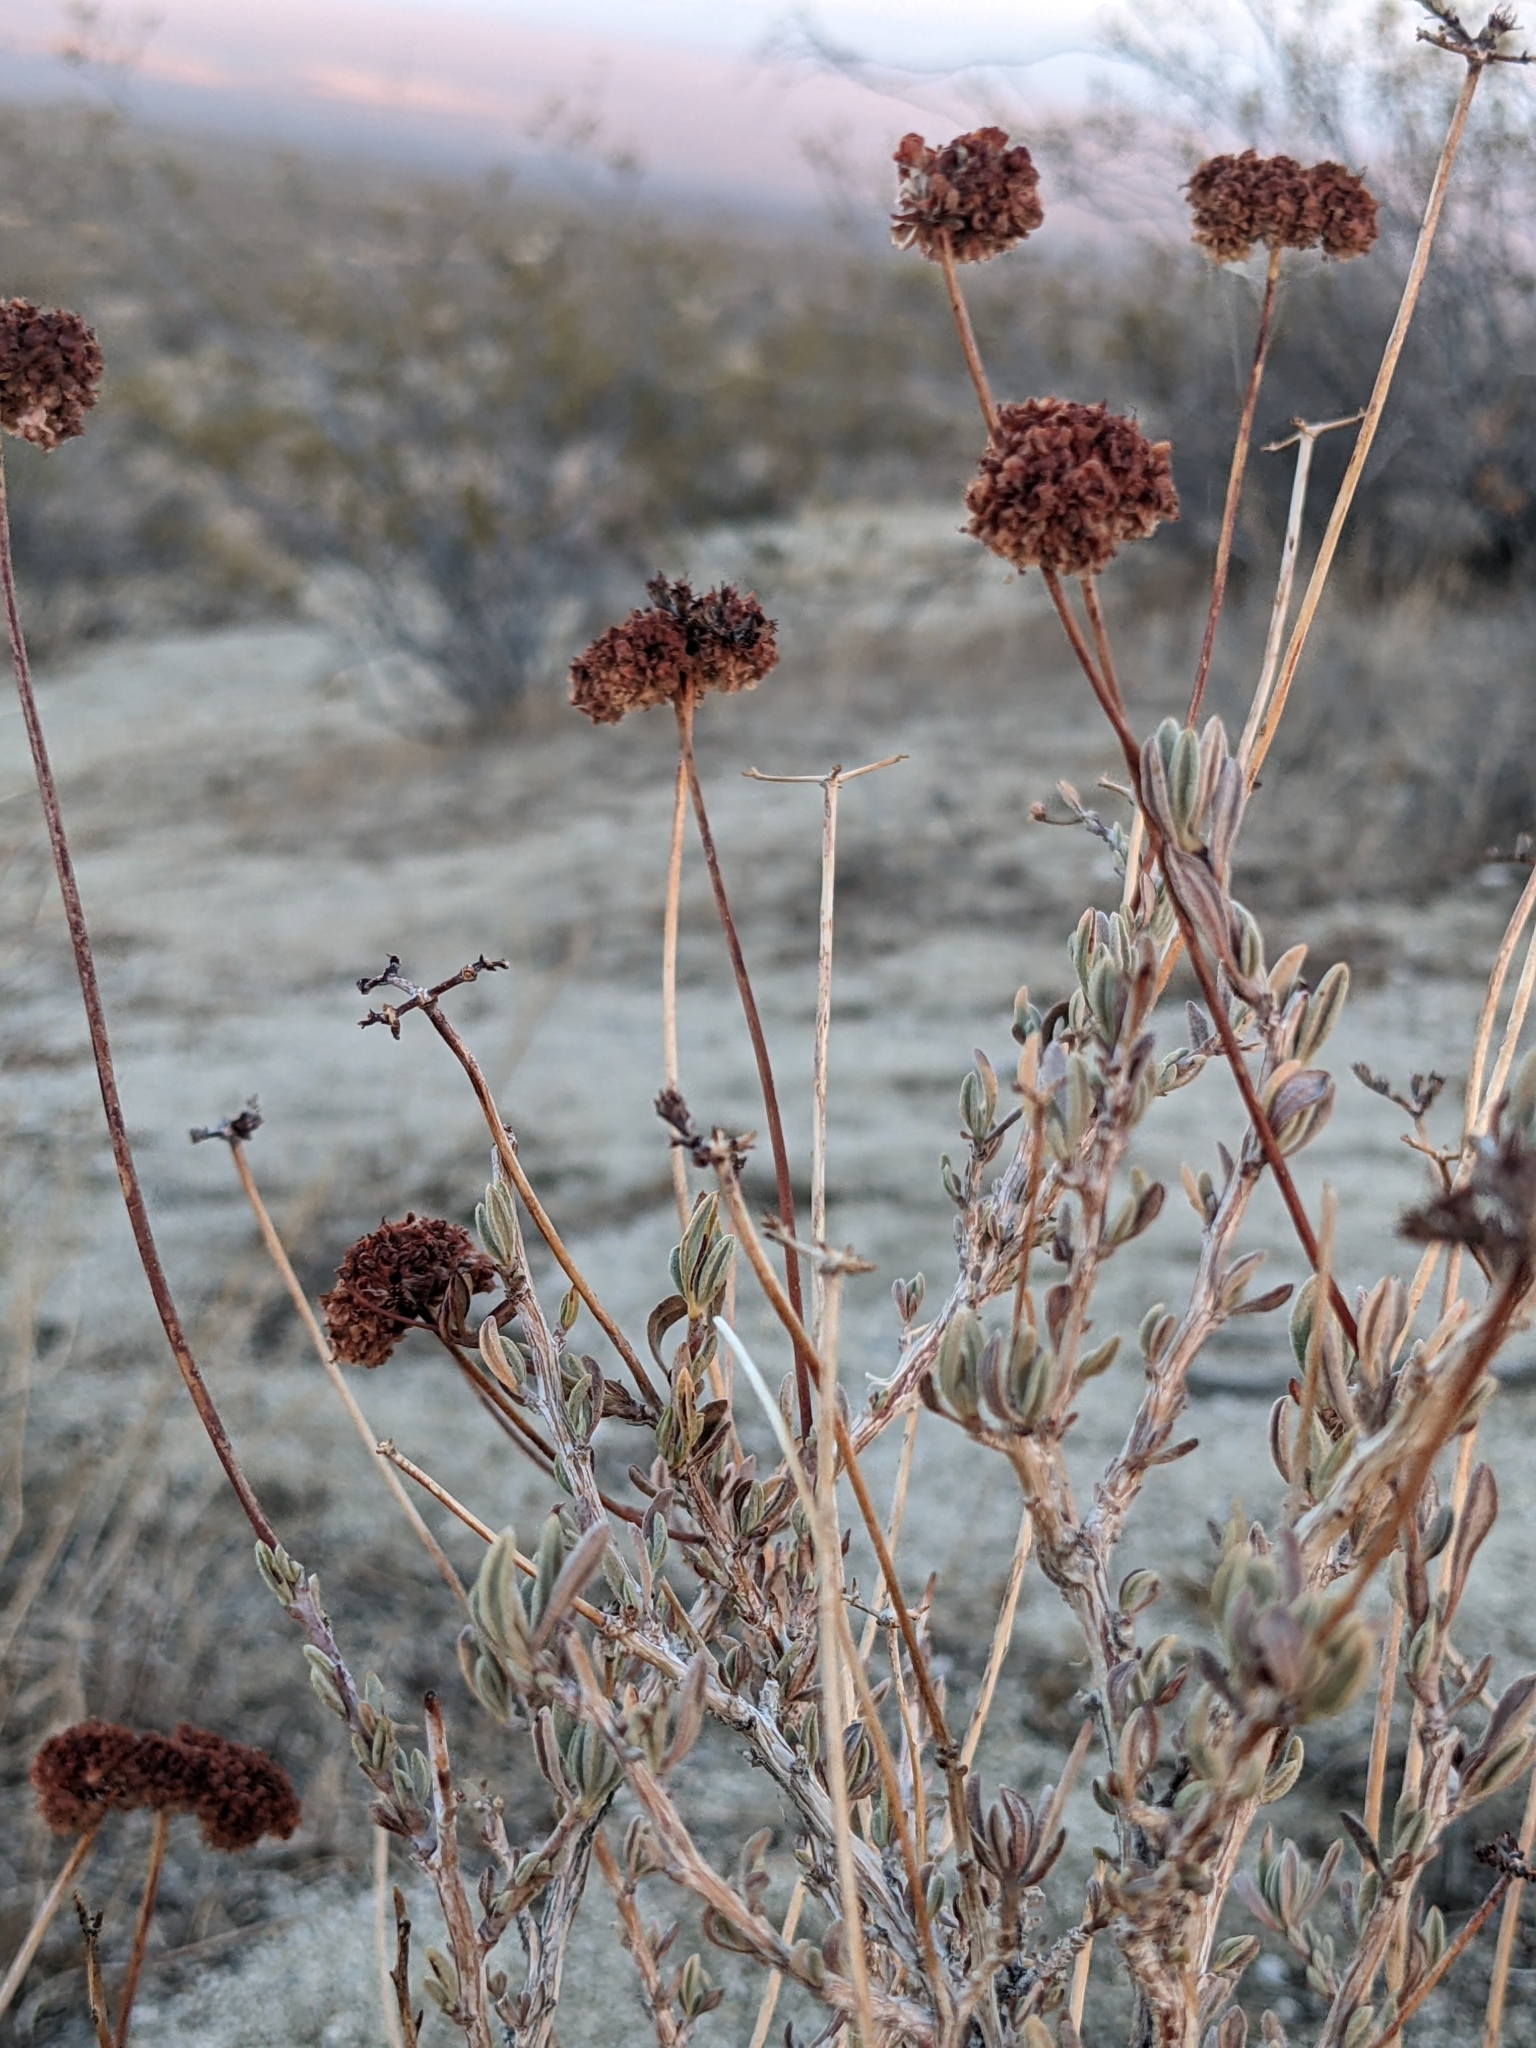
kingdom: Plantae
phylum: Tracheophyta
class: Magnoliopsida
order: Caryophyllales
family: Polygonaceae
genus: Eriogonum
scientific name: Eriogonum fasciculatum
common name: California wild buckwheat
